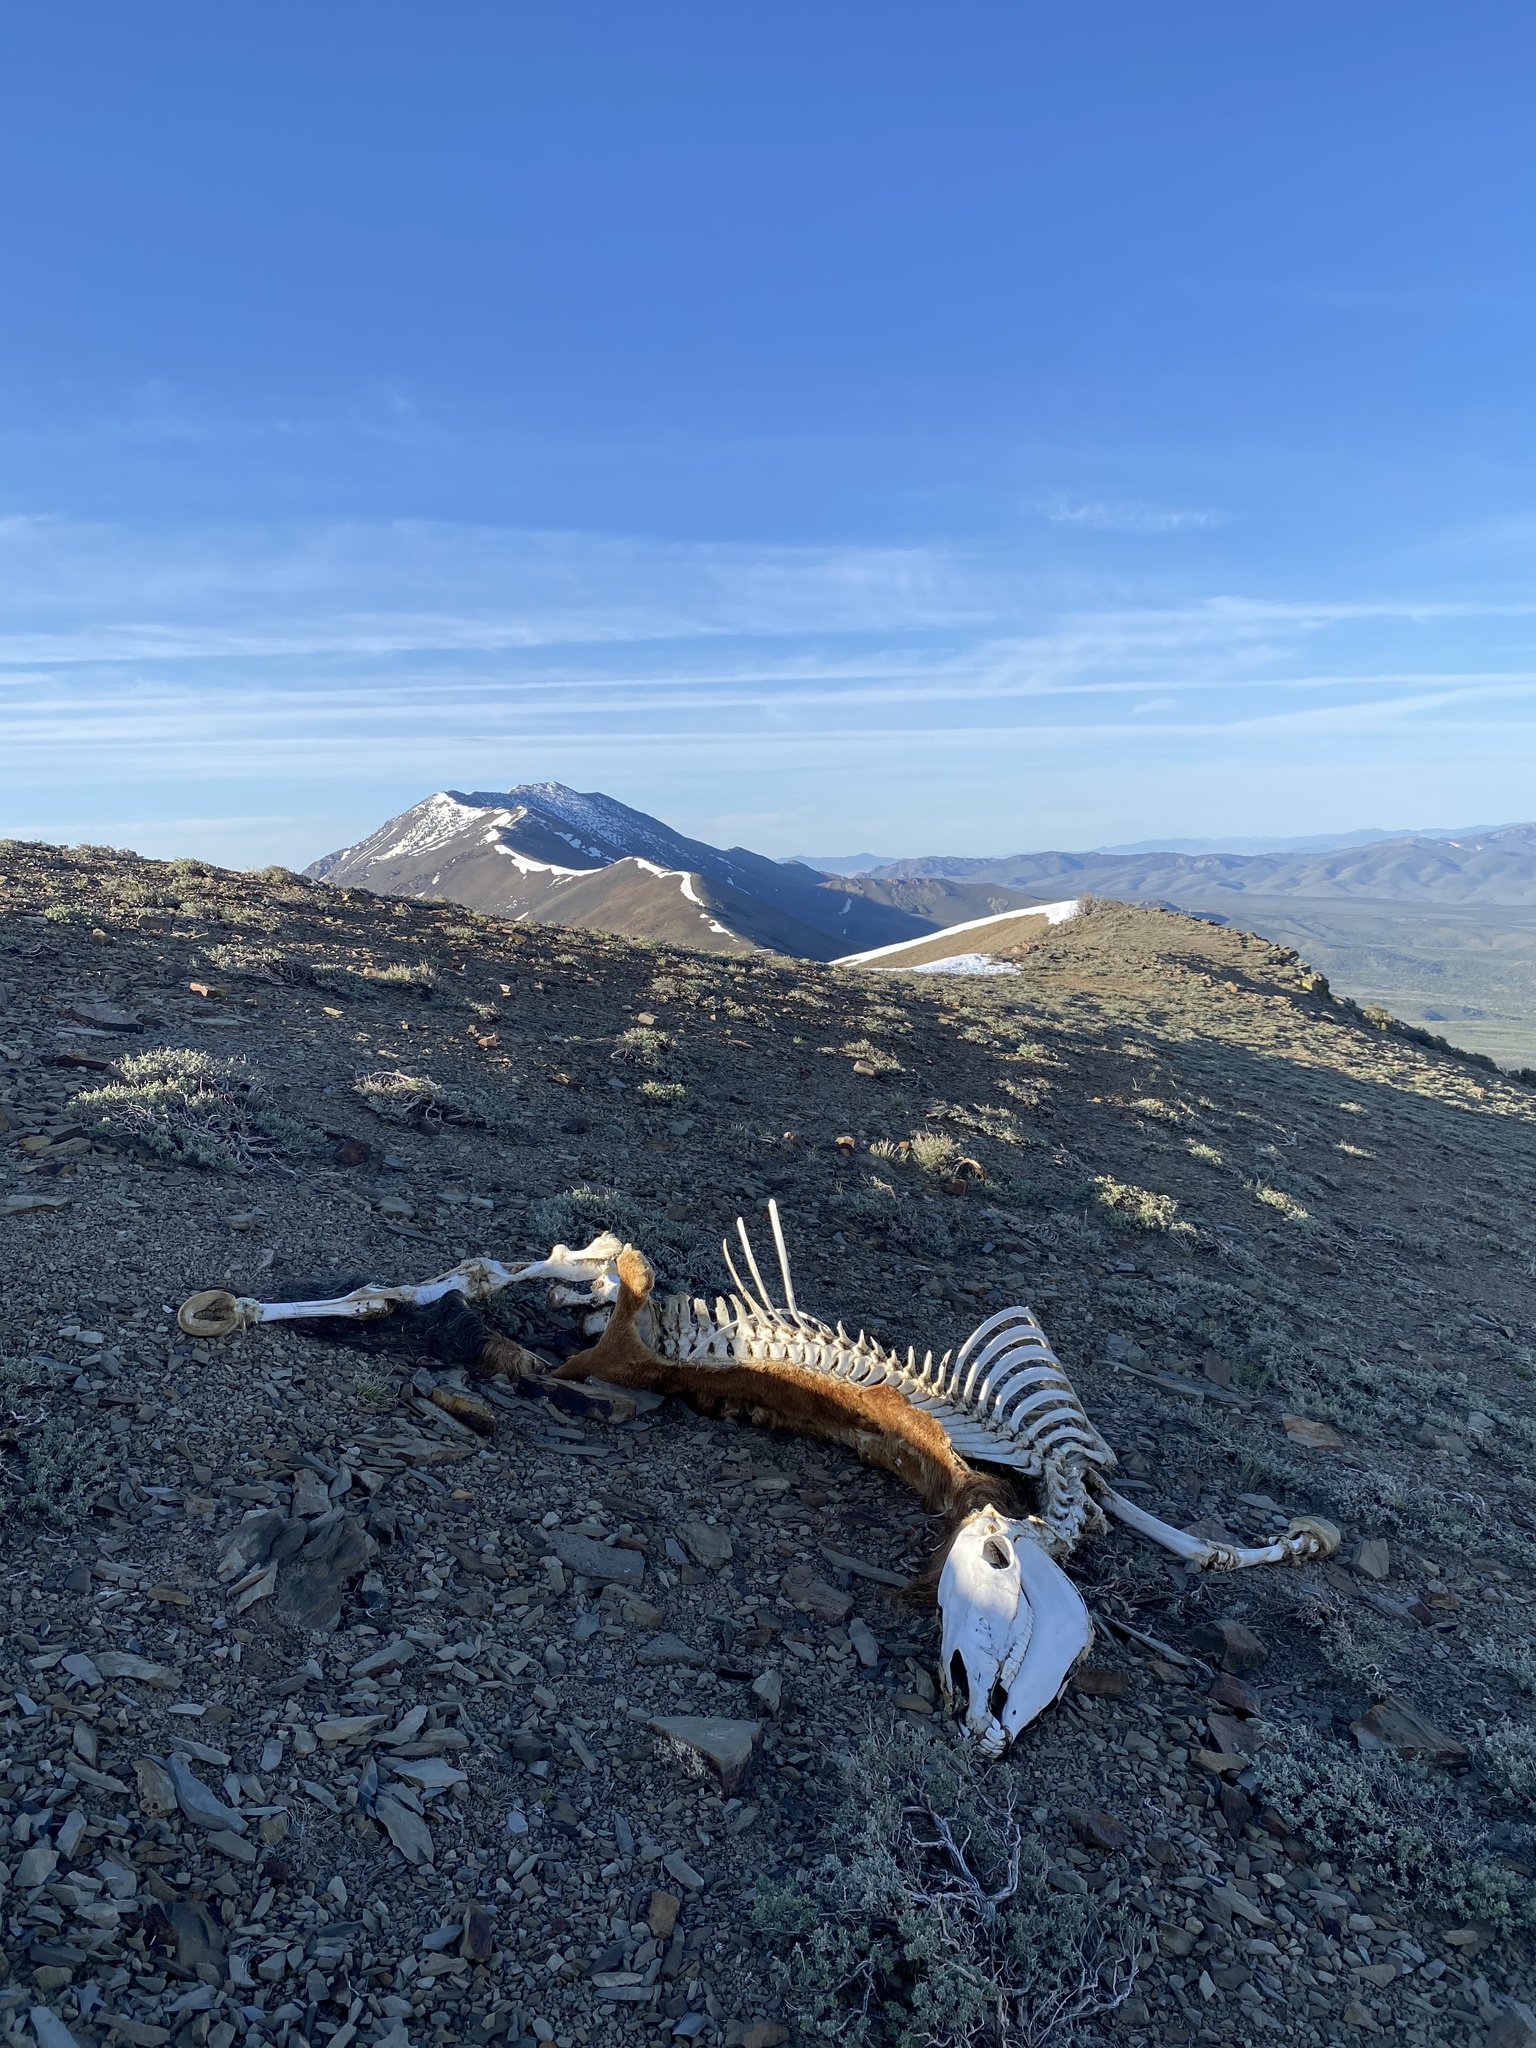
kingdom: Animalia
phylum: Chordata
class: Mammalia
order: Perissodactyla
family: Equidae
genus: Equus
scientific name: Equus caballus
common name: Horse
